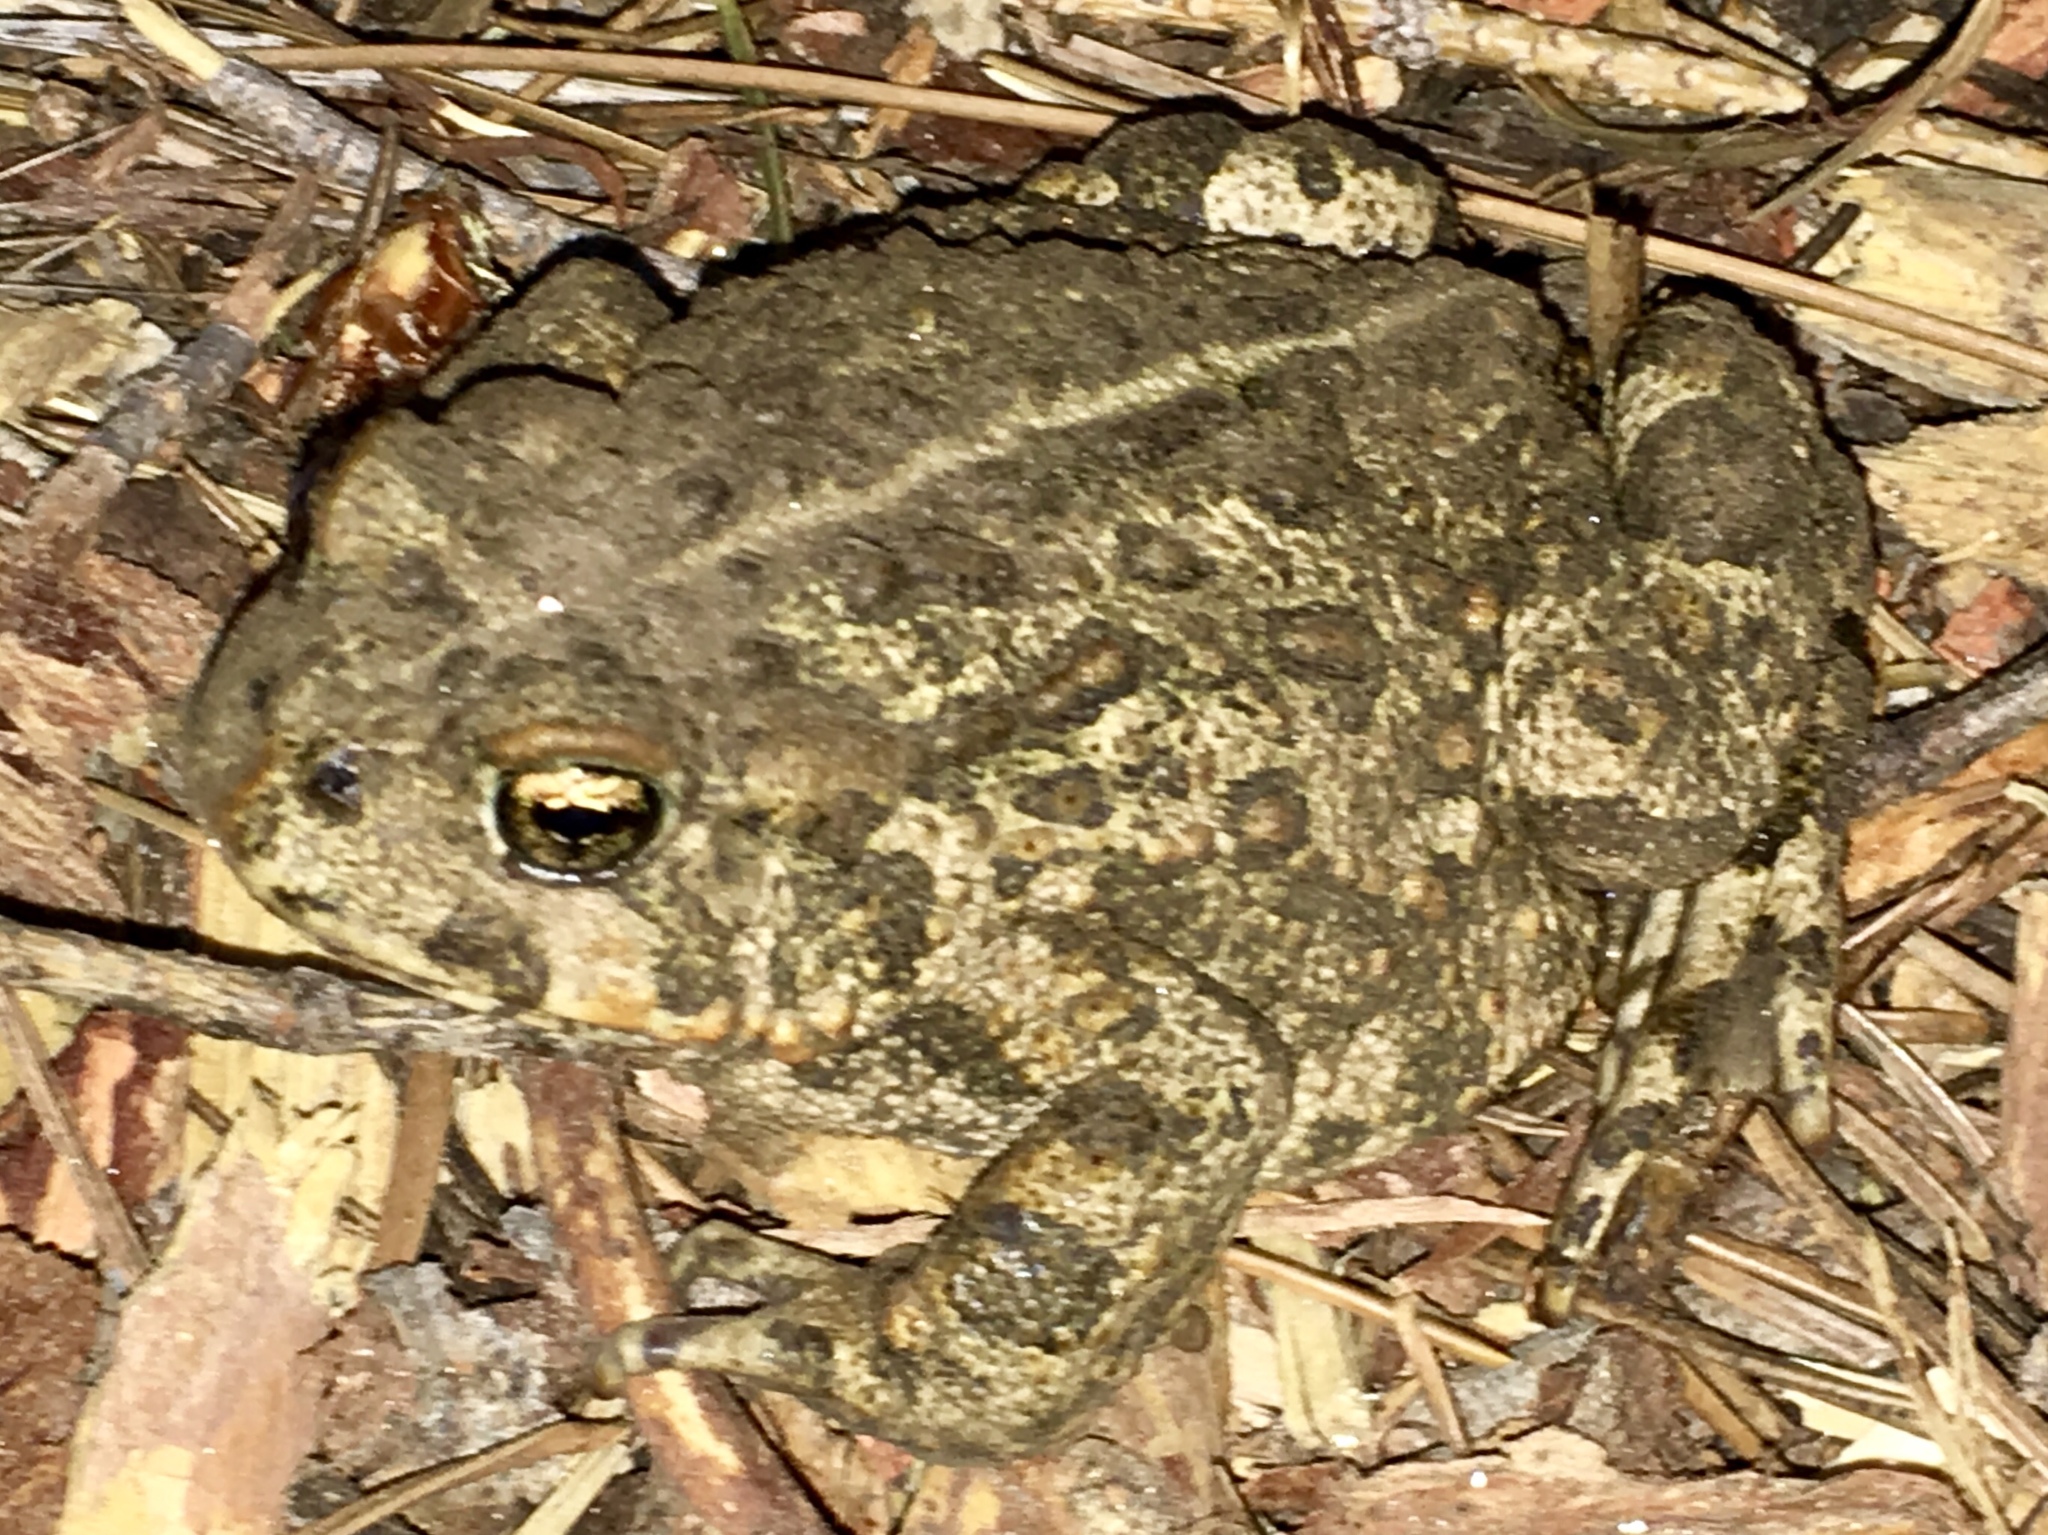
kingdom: Animalia
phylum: Chordata
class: Amphibia
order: Anura
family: Bufonidae
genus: Anaxyrus
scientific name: Anaxyrus boreas
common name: Western toad
